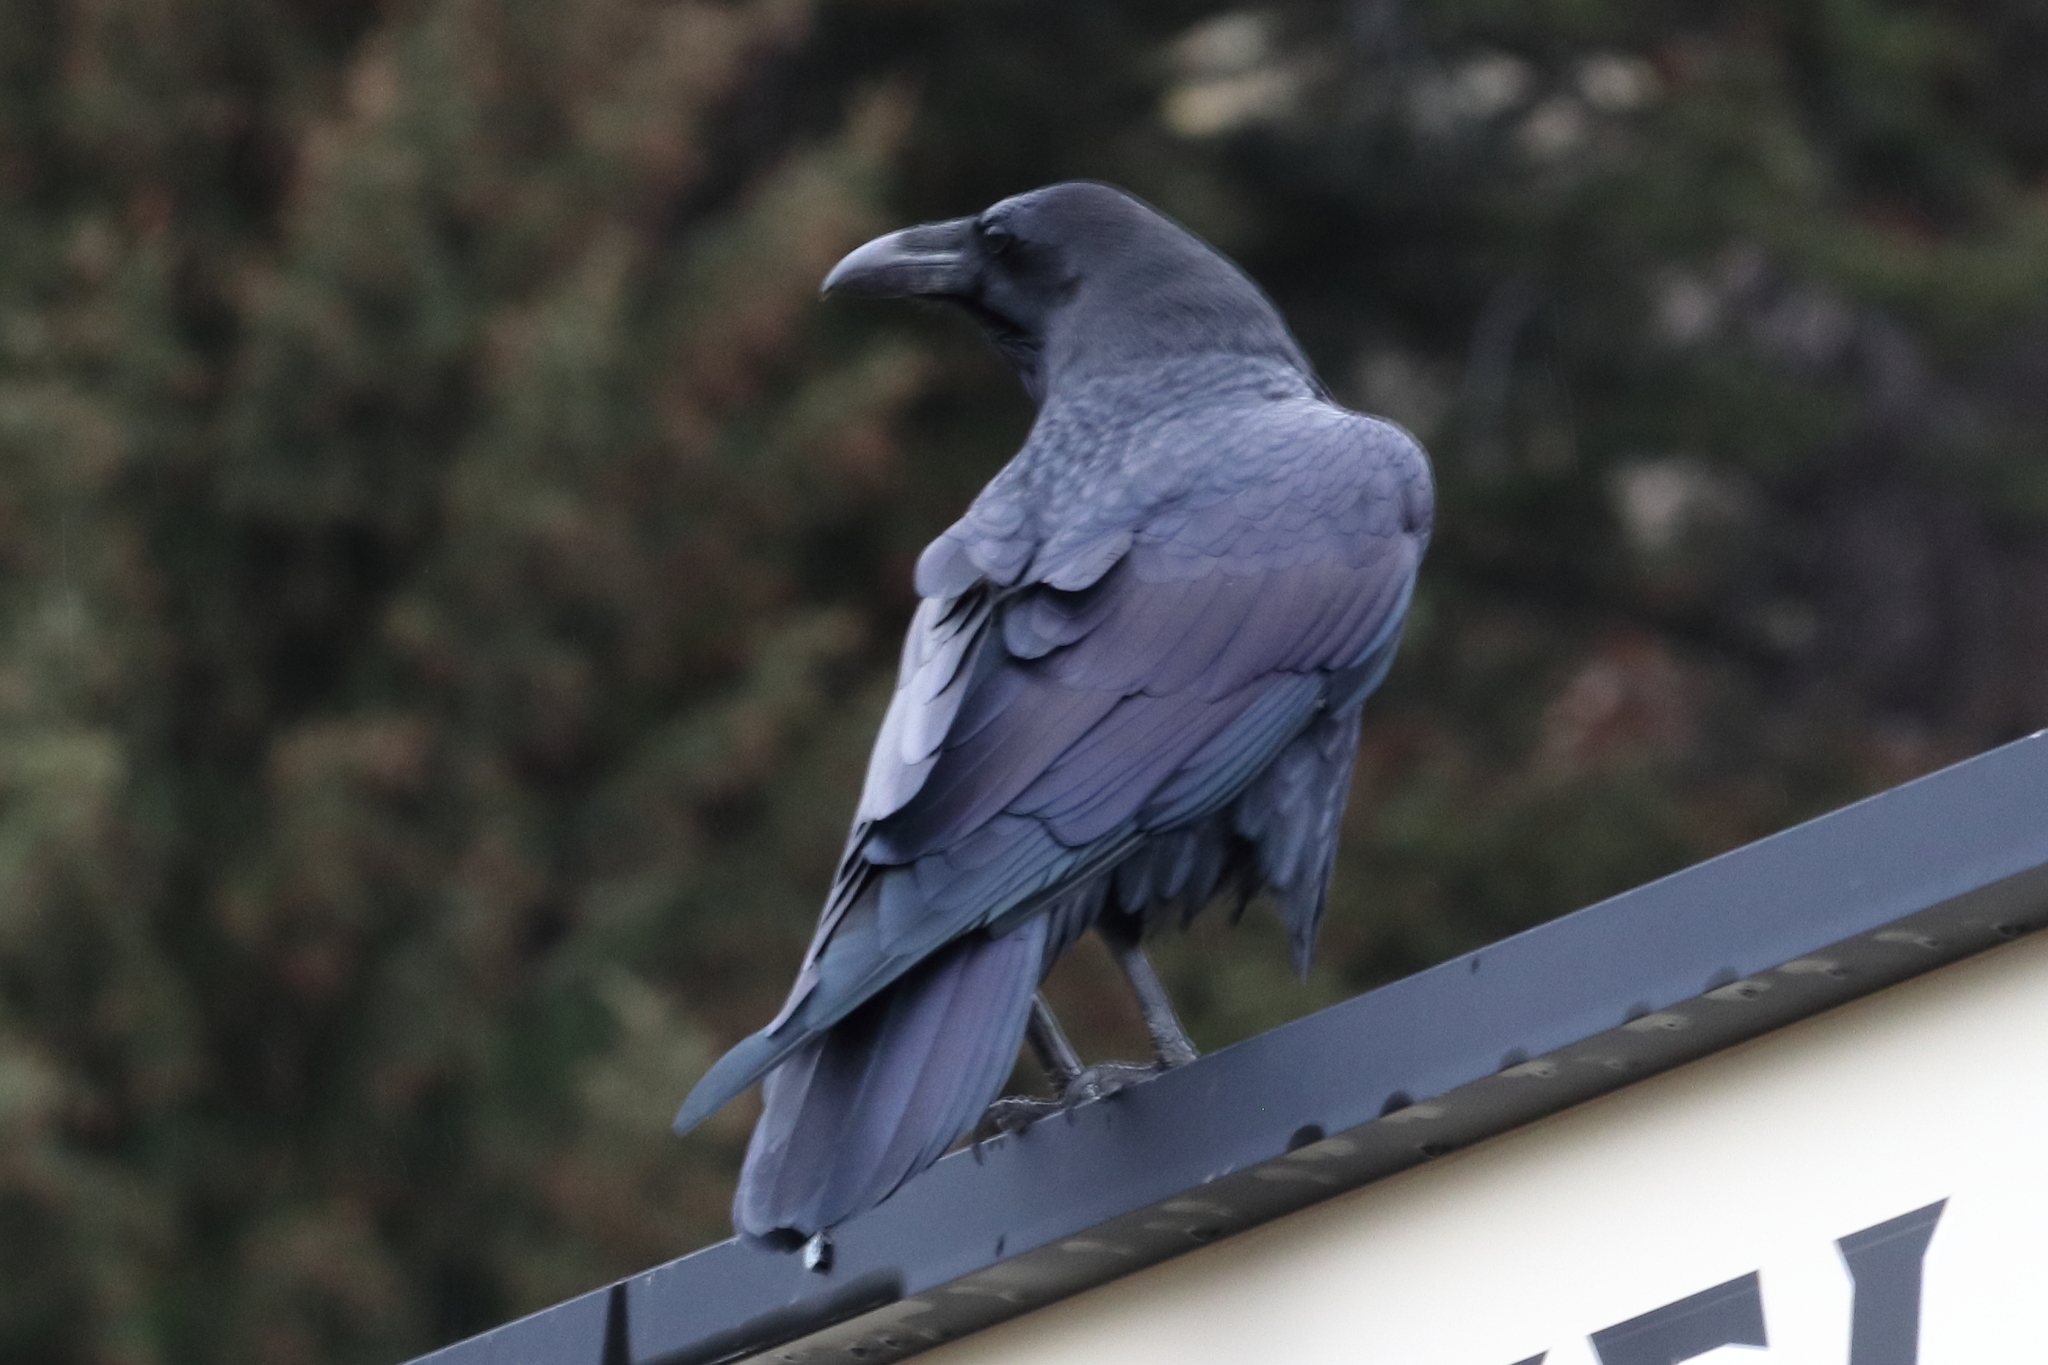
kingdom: Animalia
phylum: Chordata
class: Aves
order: Passeriformes
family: Corvidae
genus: Corvus
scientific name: Corvus corax
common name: Common raven
